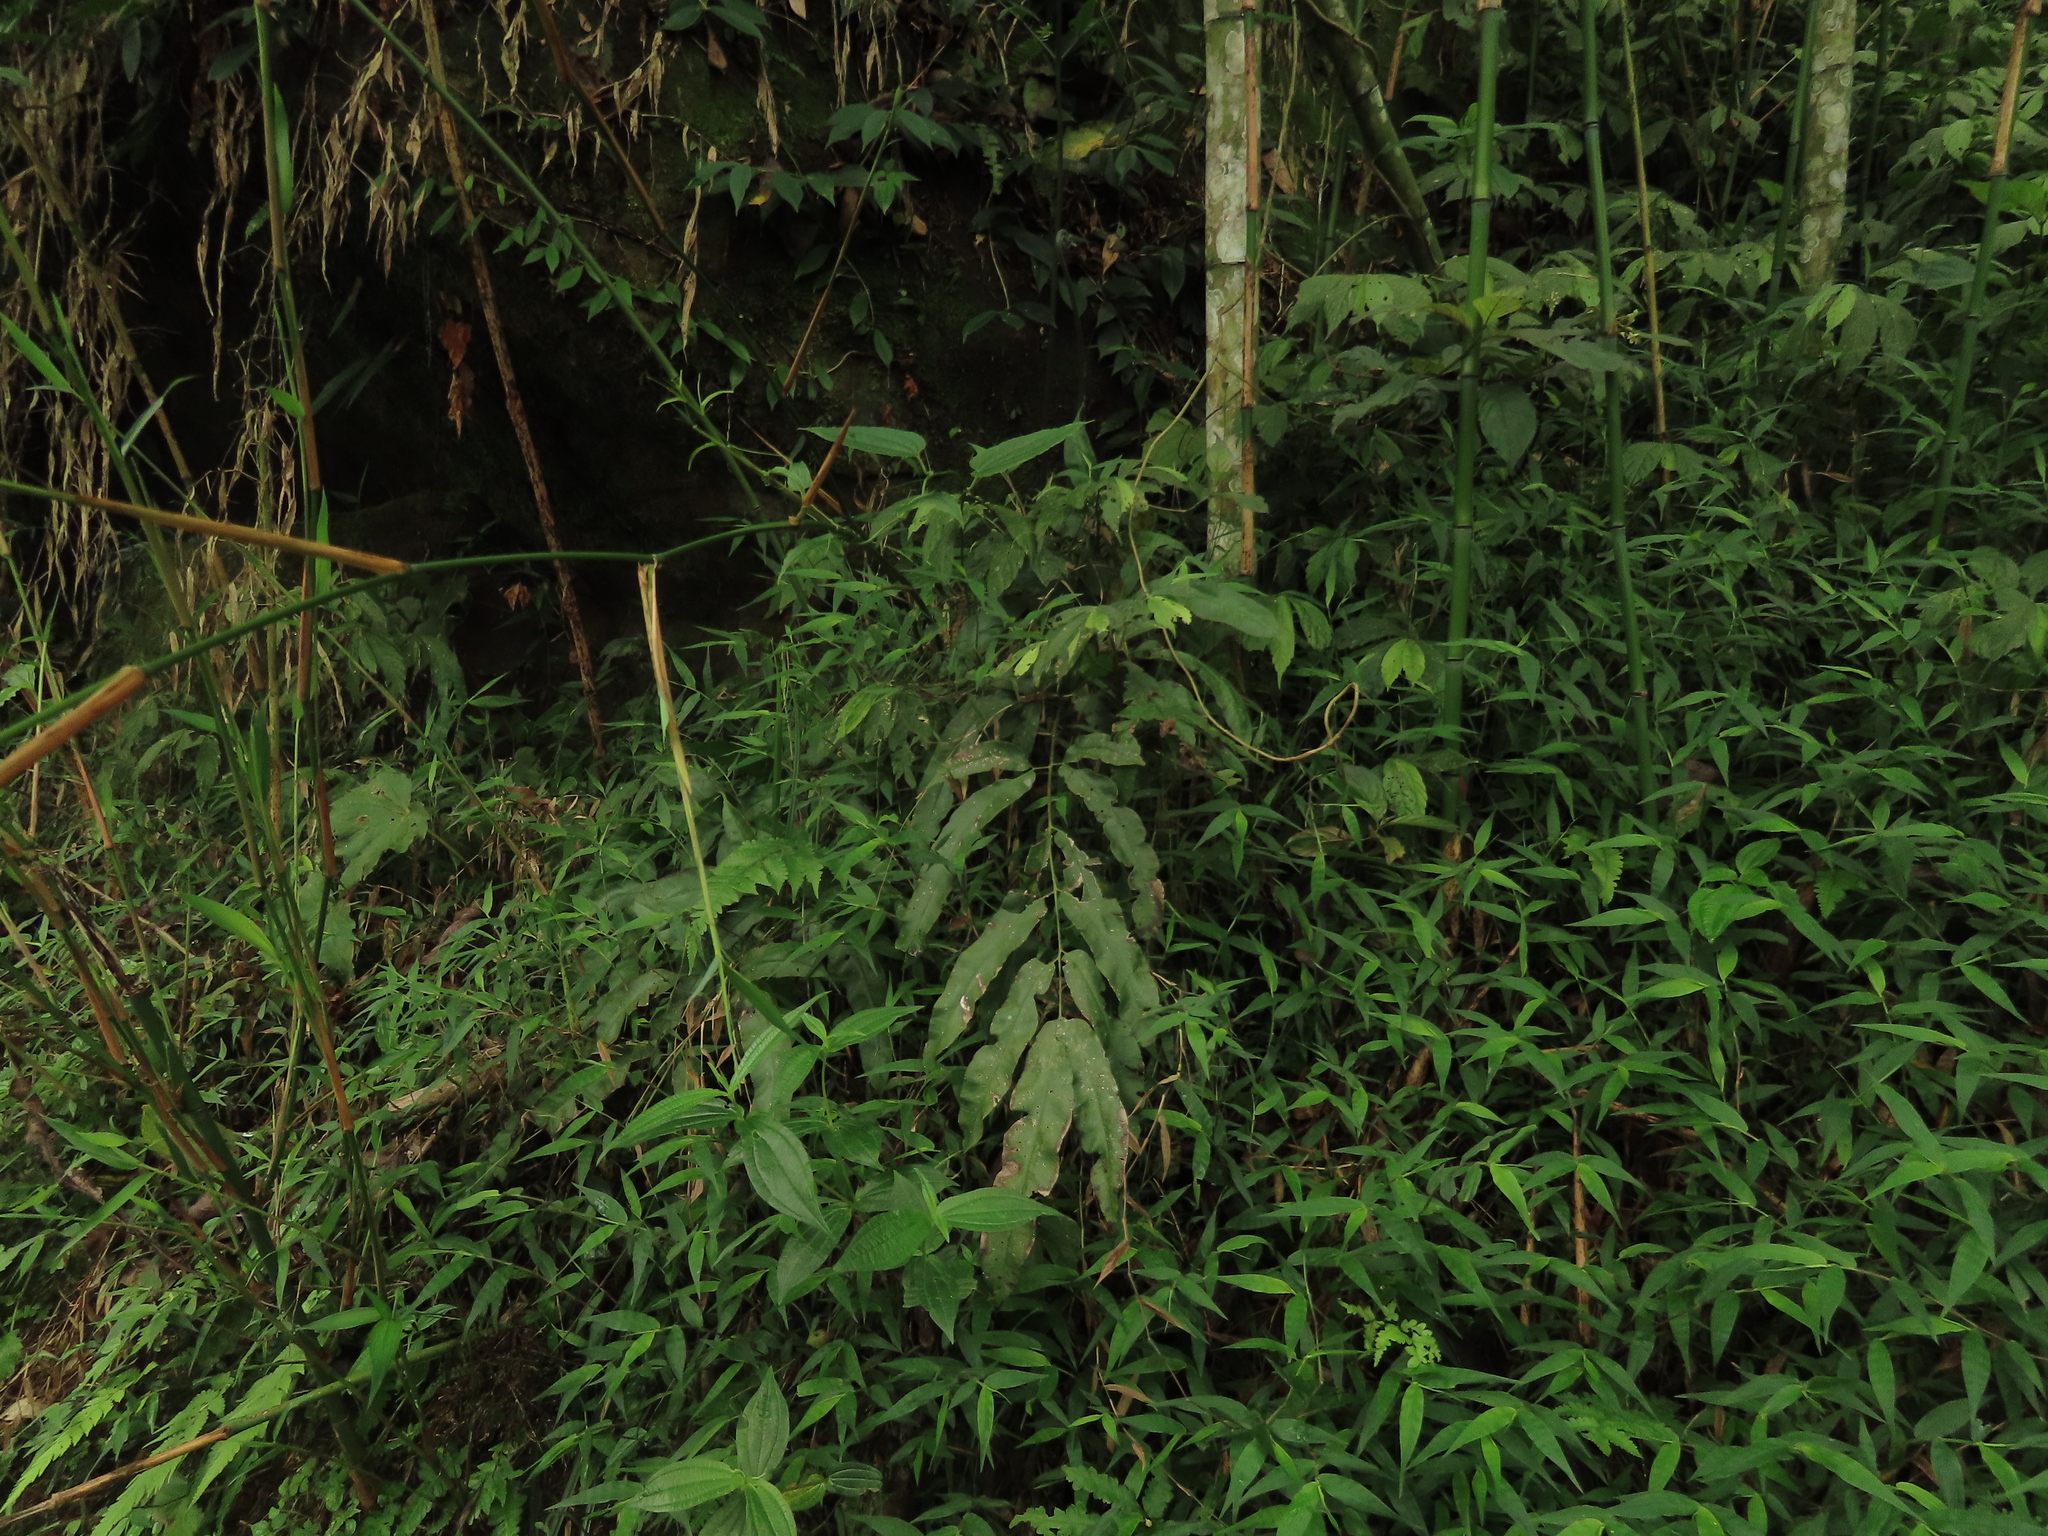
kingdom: Plantae
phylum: Tracheophyta
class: Polypodiopsida
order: Polypodiales
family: Pteridaceae
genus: Coniogramme
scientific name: Coniogramme fraxinea
